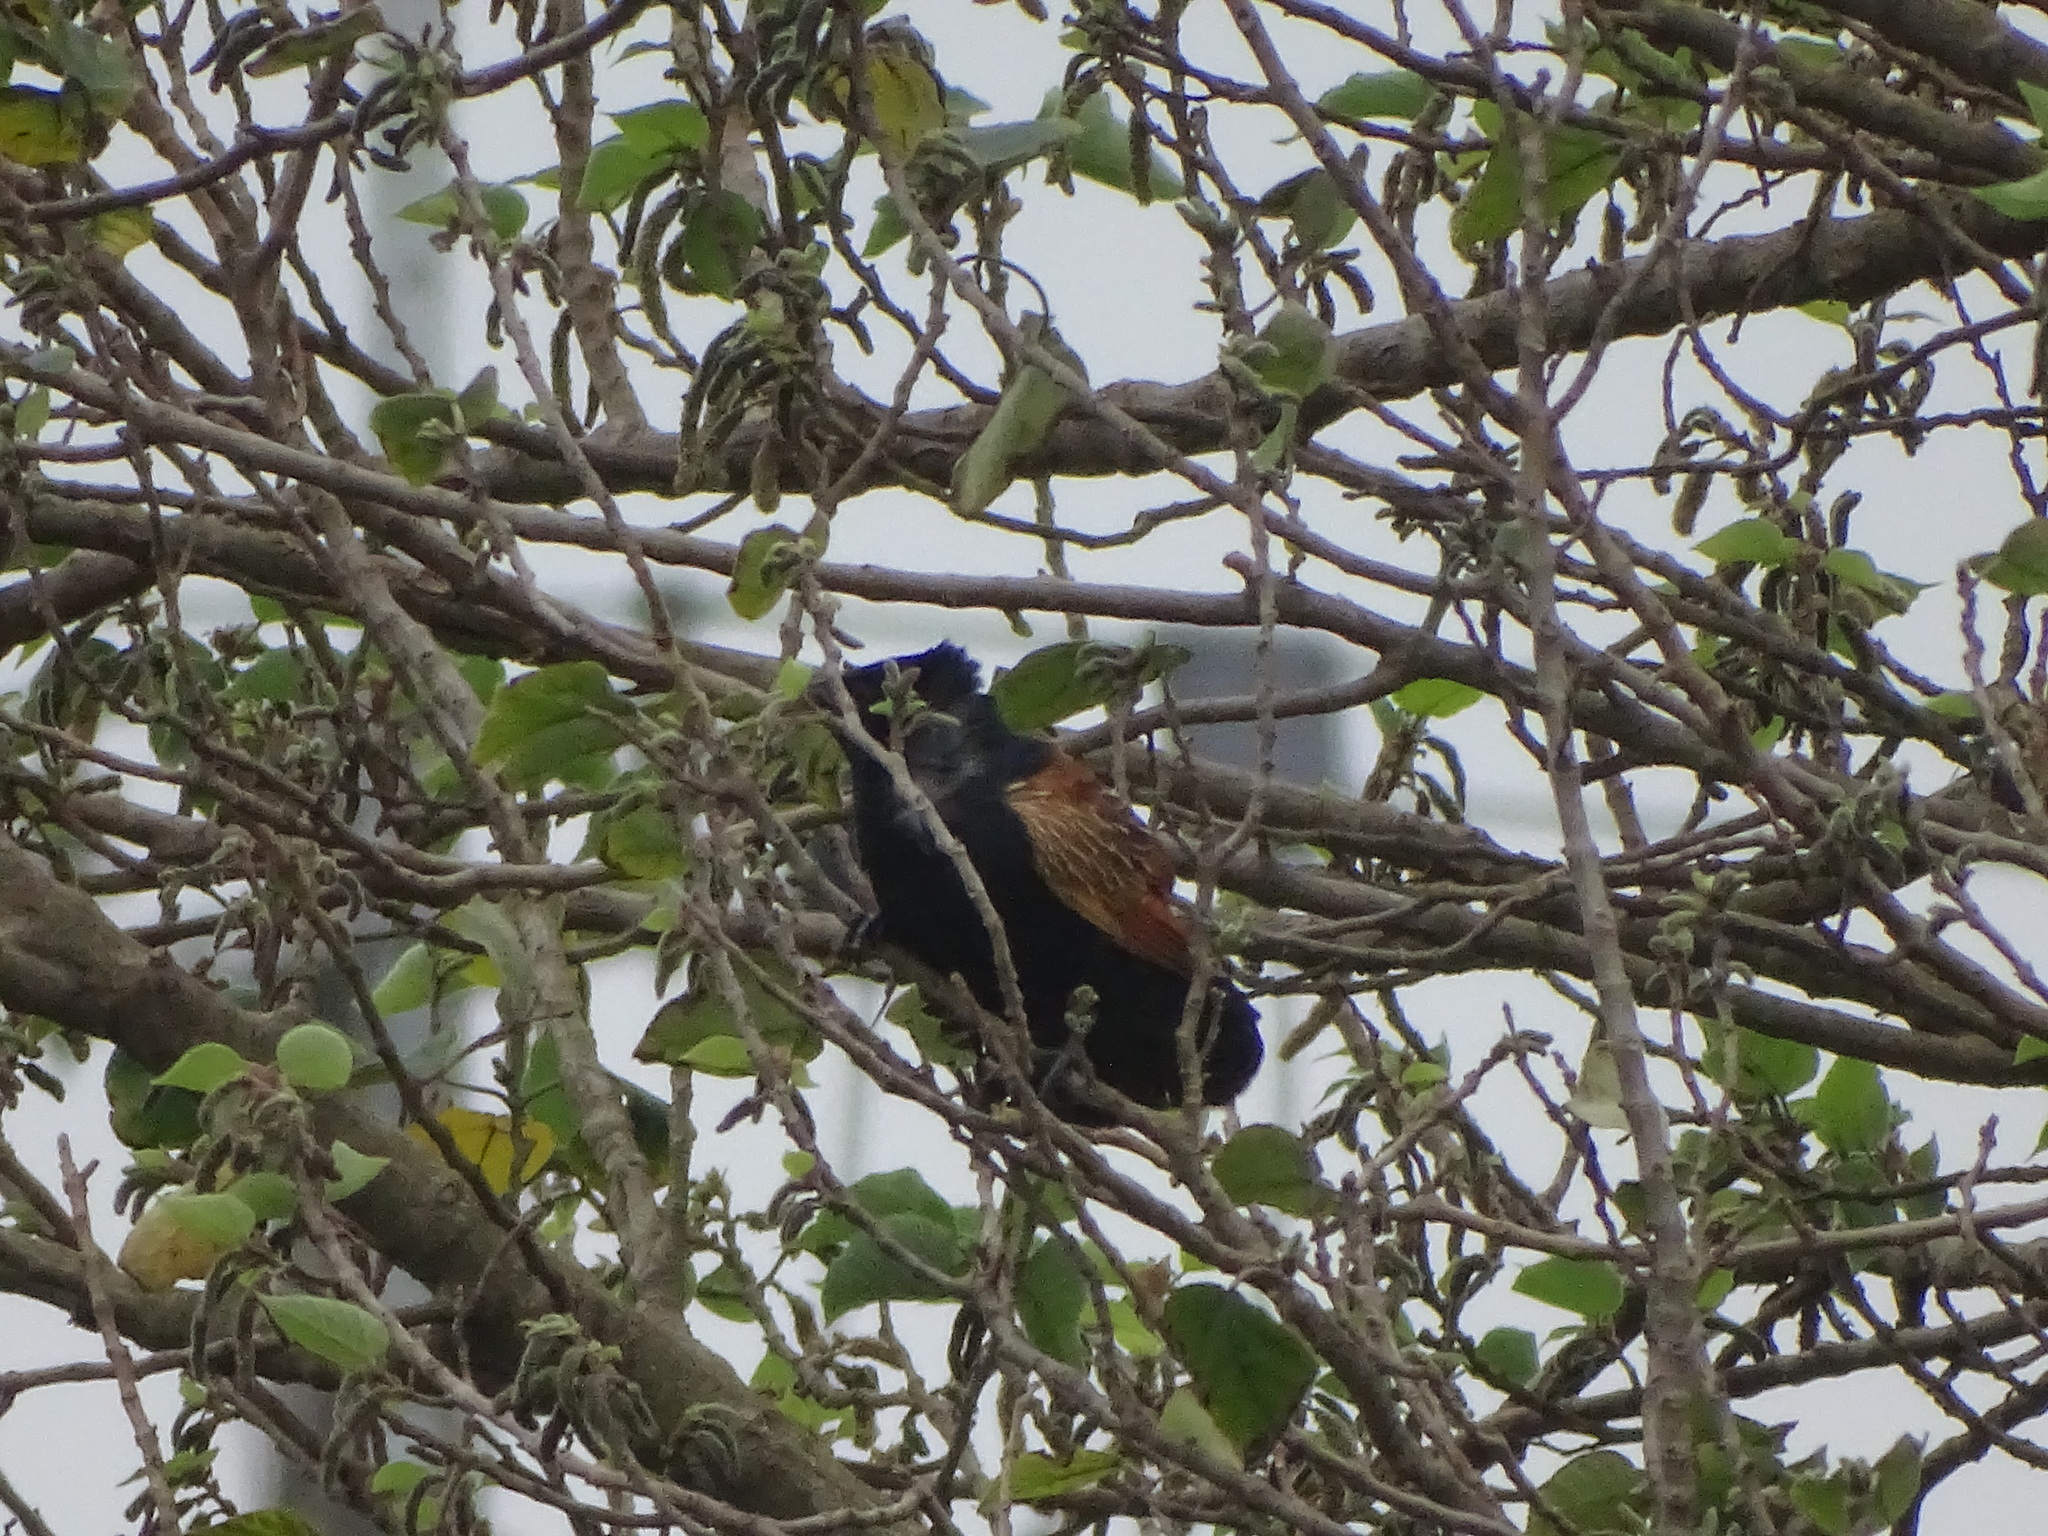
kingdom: Animalia
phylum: Chordata
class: Aves
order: Cuculiformes
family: Cuculidae
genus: Centropus
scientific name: Centropus bengalensis
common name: Lesser coucal
